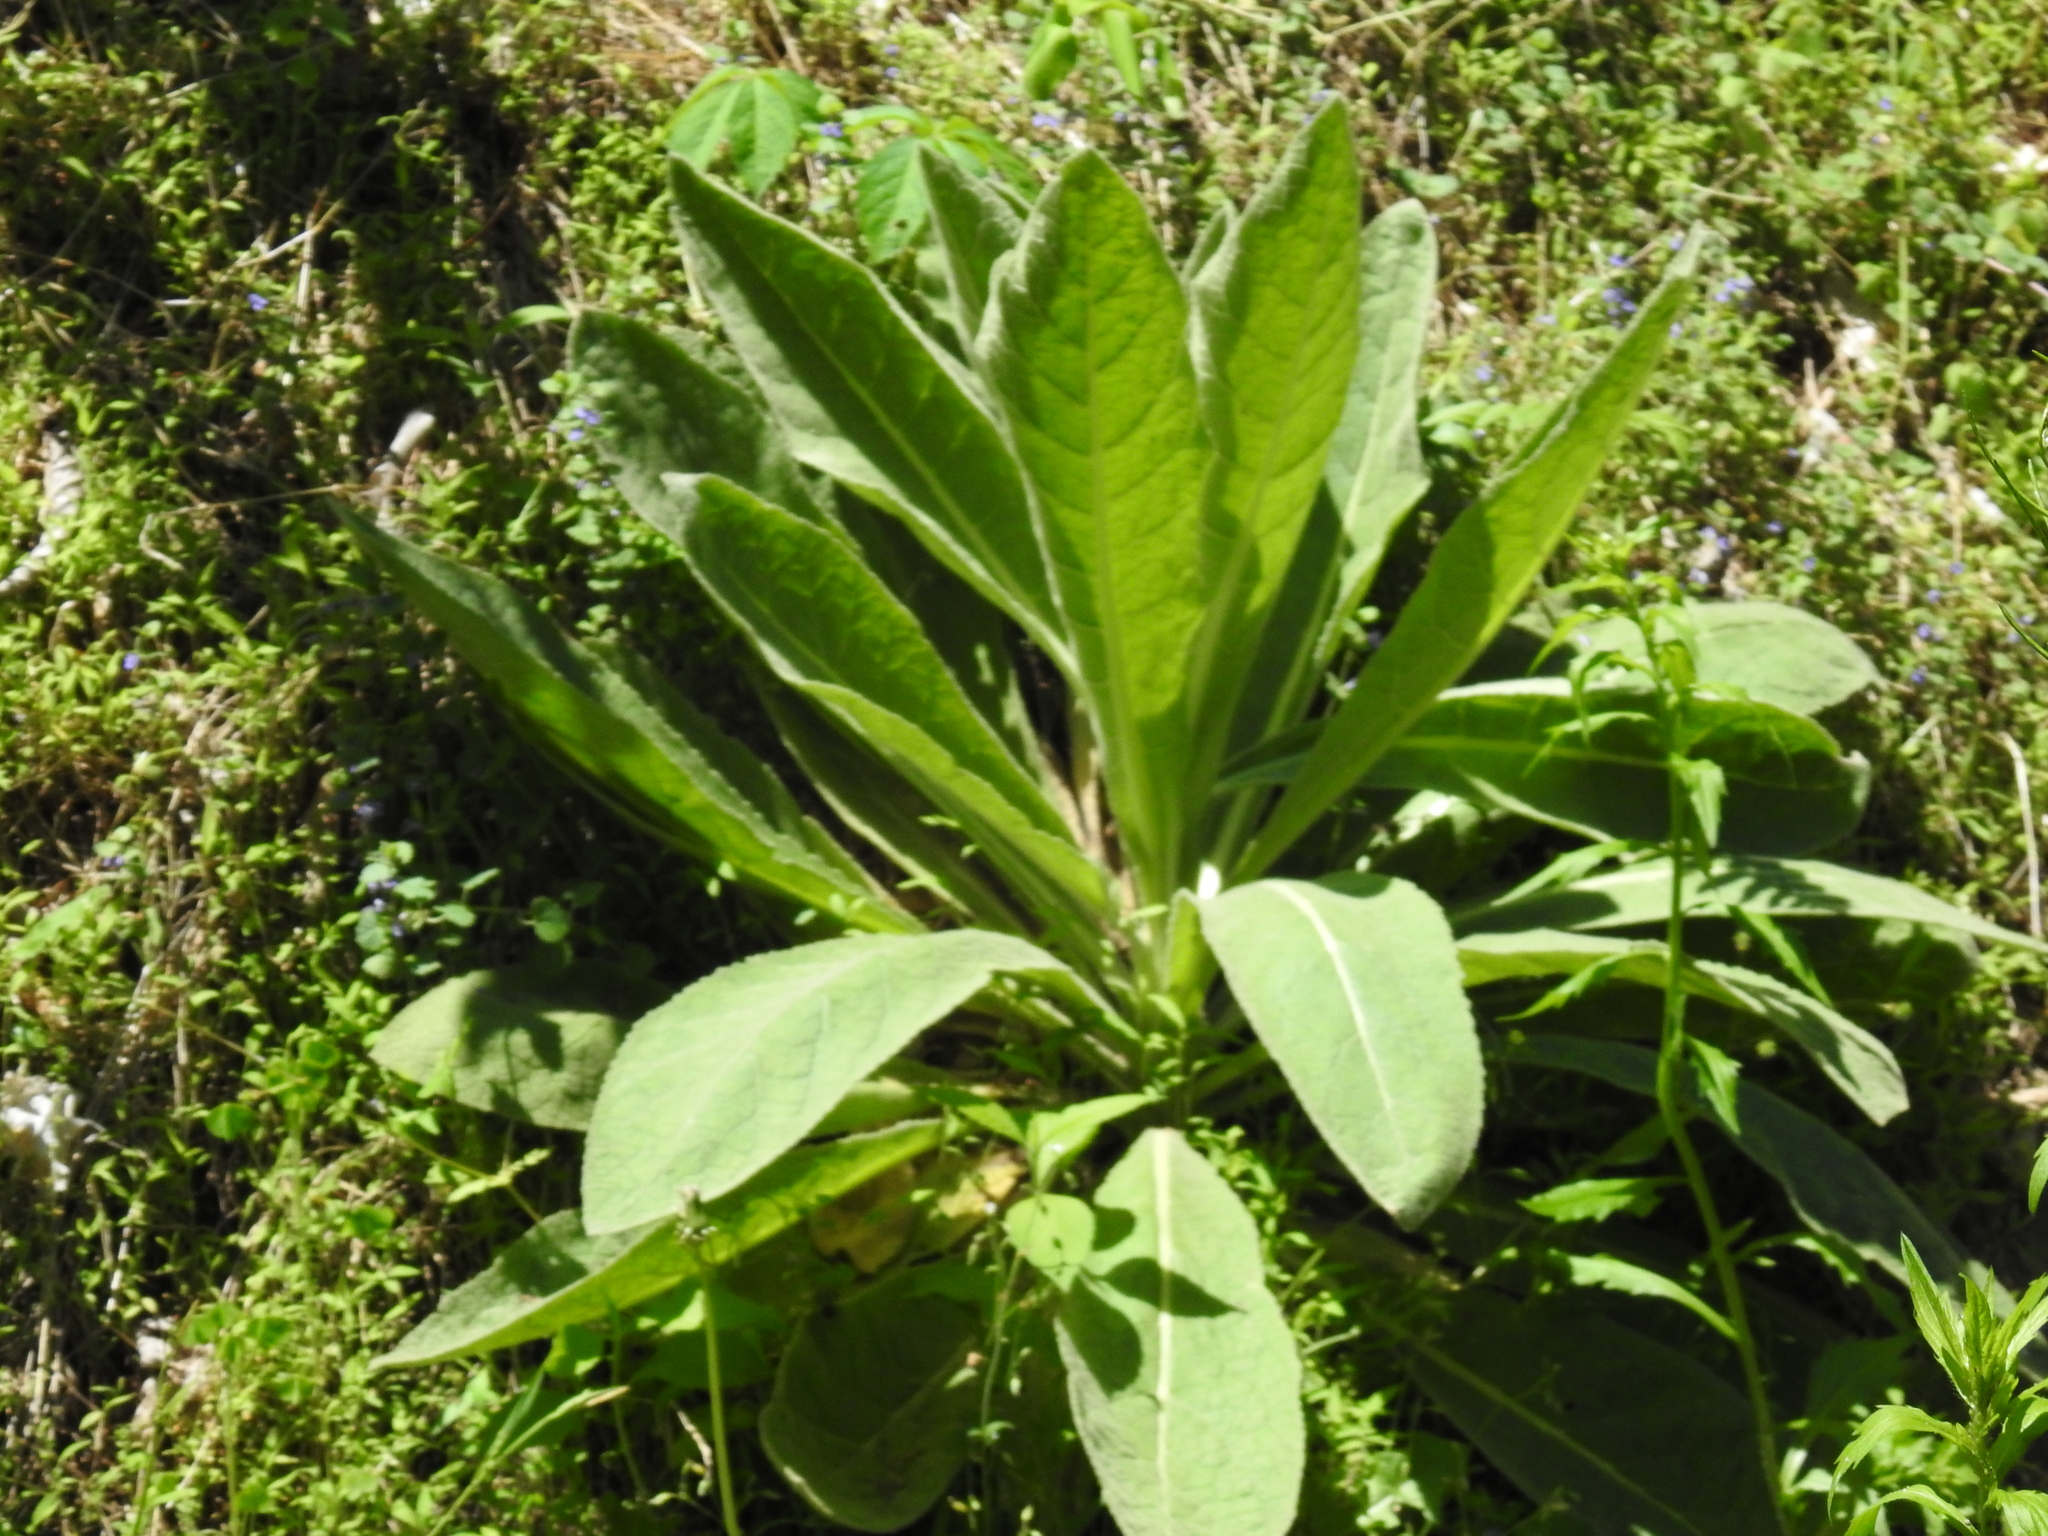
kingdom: Plantae
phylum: Tracheophyta
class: Magnoliopsida
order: Lamiales
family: Scrophulariaceae
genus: Verbascum
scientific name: Verbascum thapsus
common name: Common mullein
